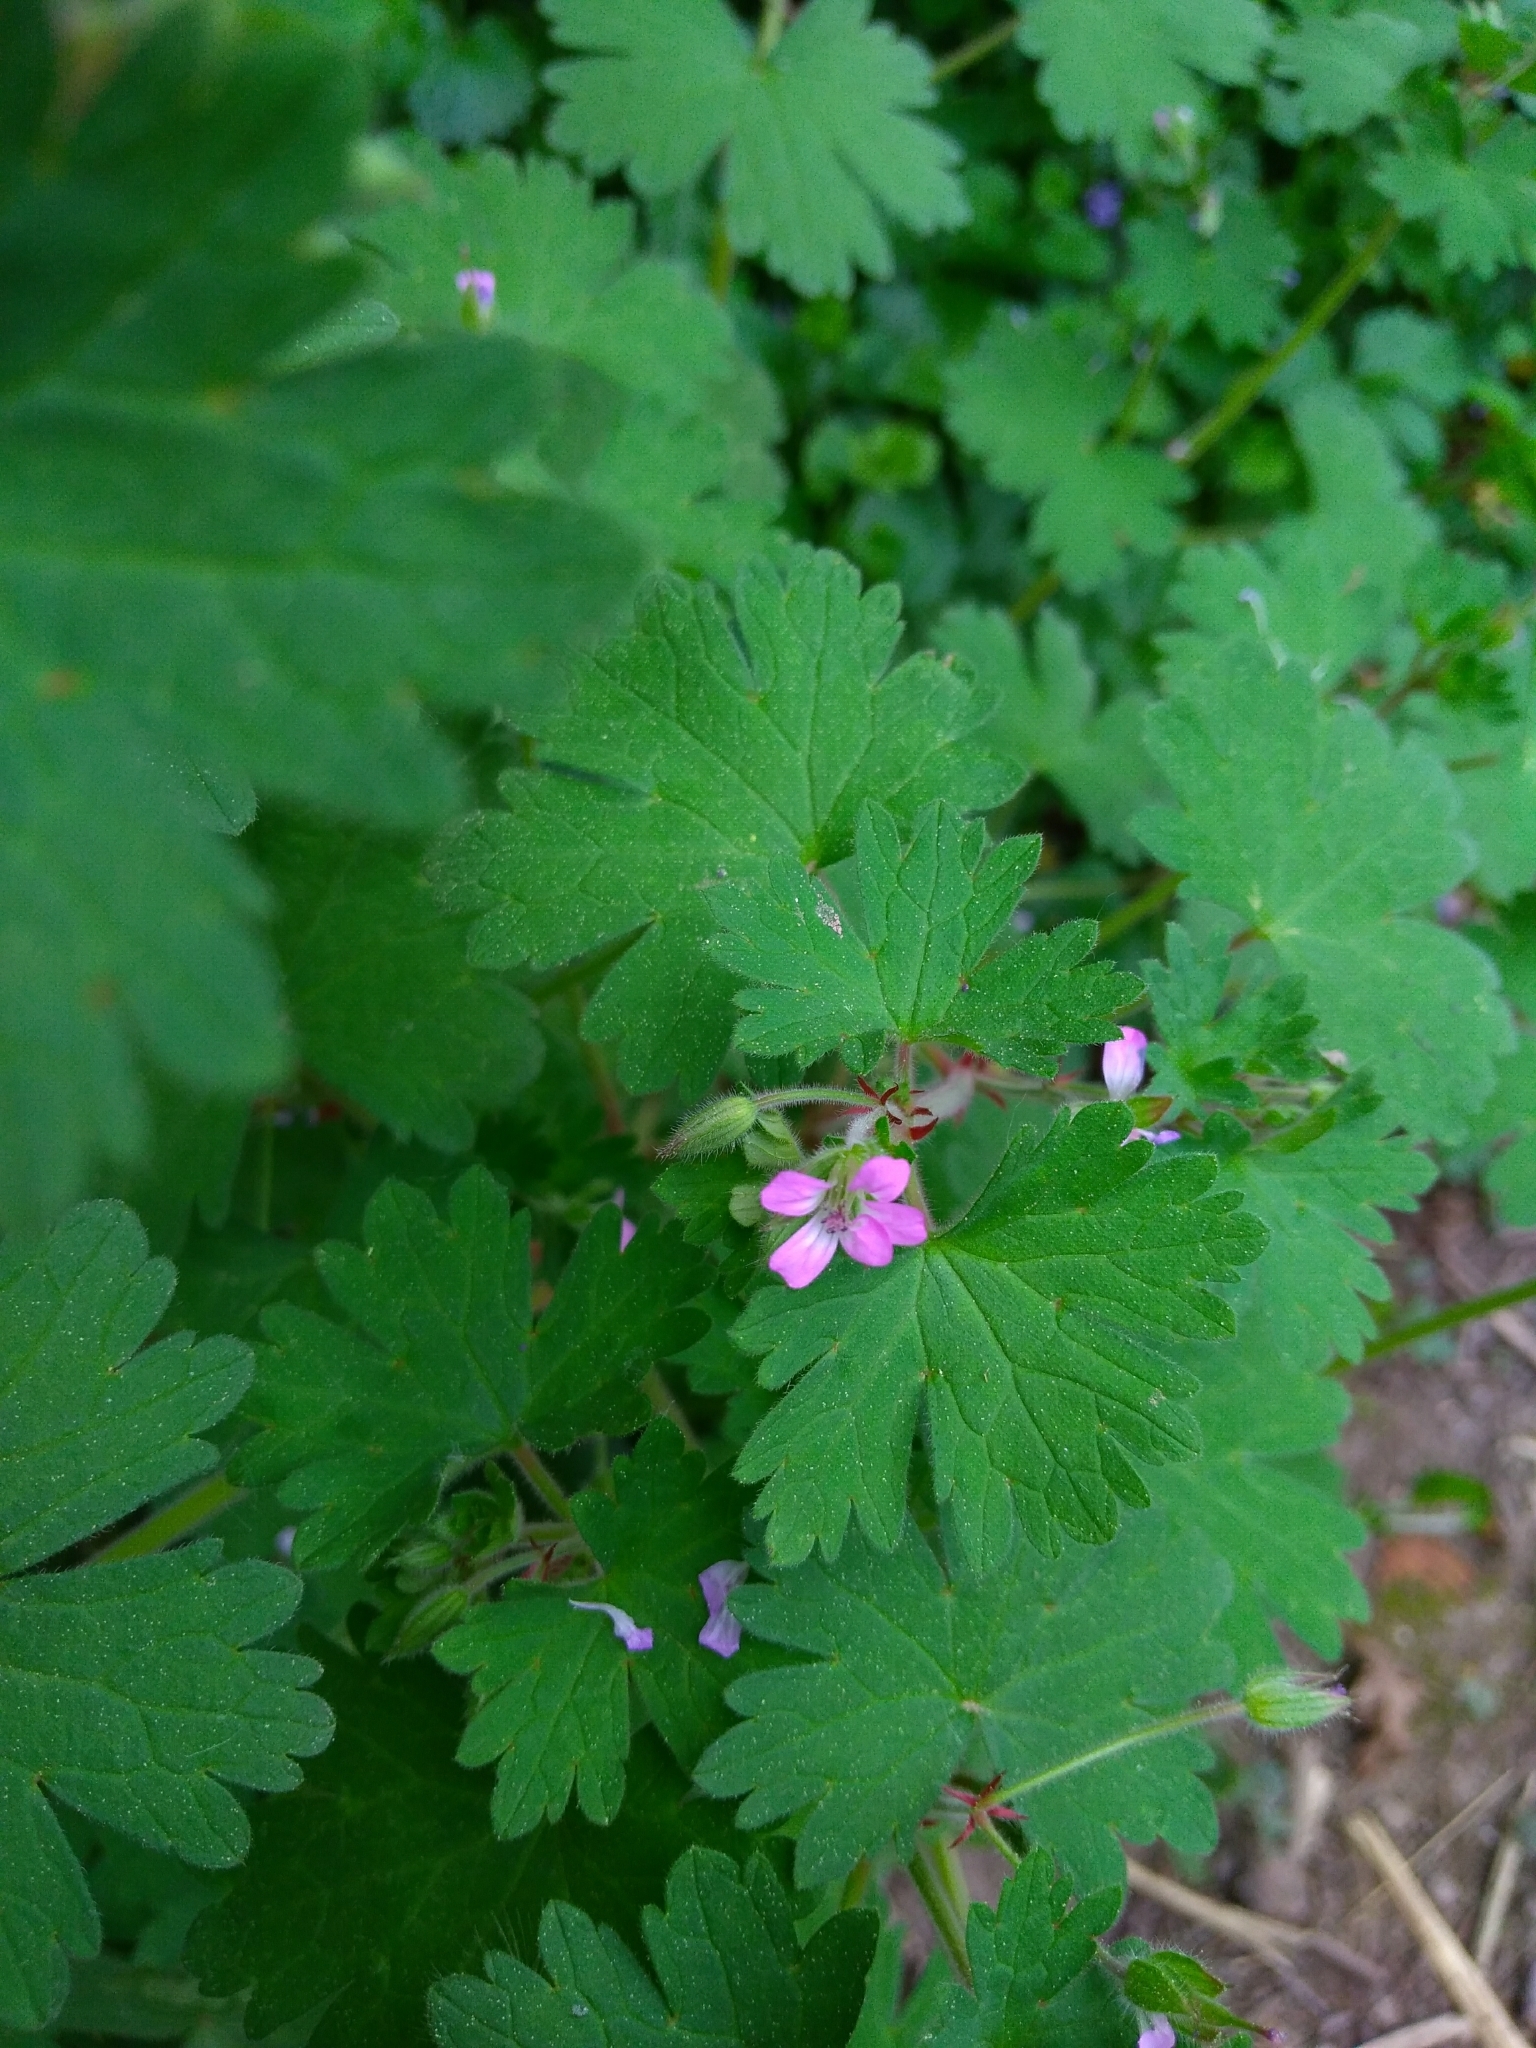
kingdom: Plantae
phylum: Tracheophyta
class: Magnoliopsida
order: Geraniales
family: Geraniaceae
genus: Geranium
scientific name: Geranium rotundifolium
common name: Round-leaved crane's-bill
